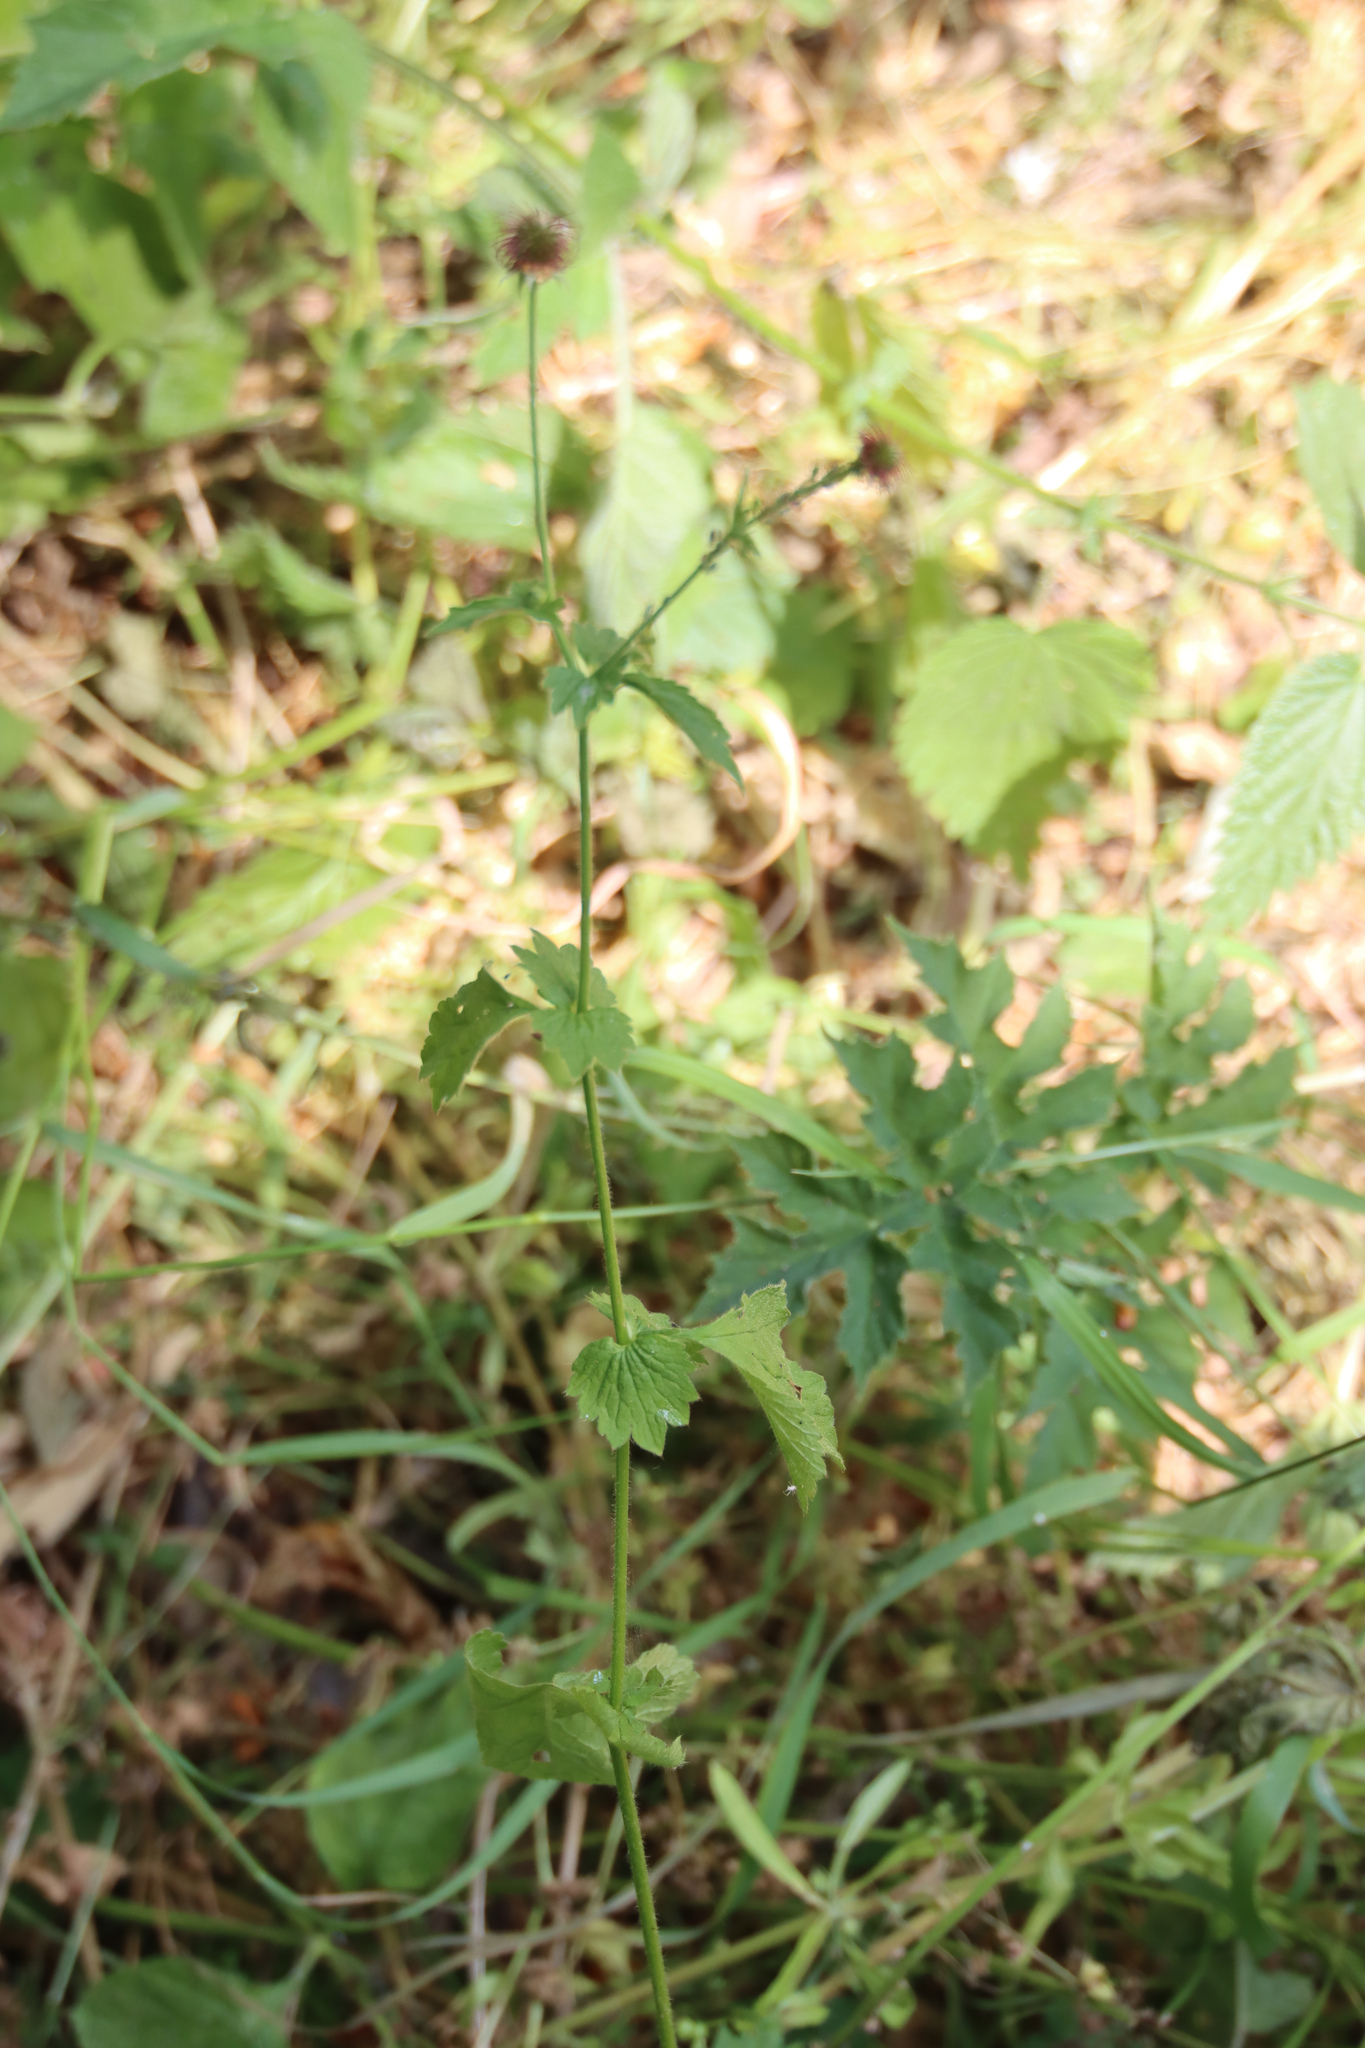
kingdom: Plantae
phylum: Tracheophyta
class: Magnoliopsida
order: Rosales
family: Rosaceae
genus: Geum
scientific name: Geum urbanum
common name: Wood avens
